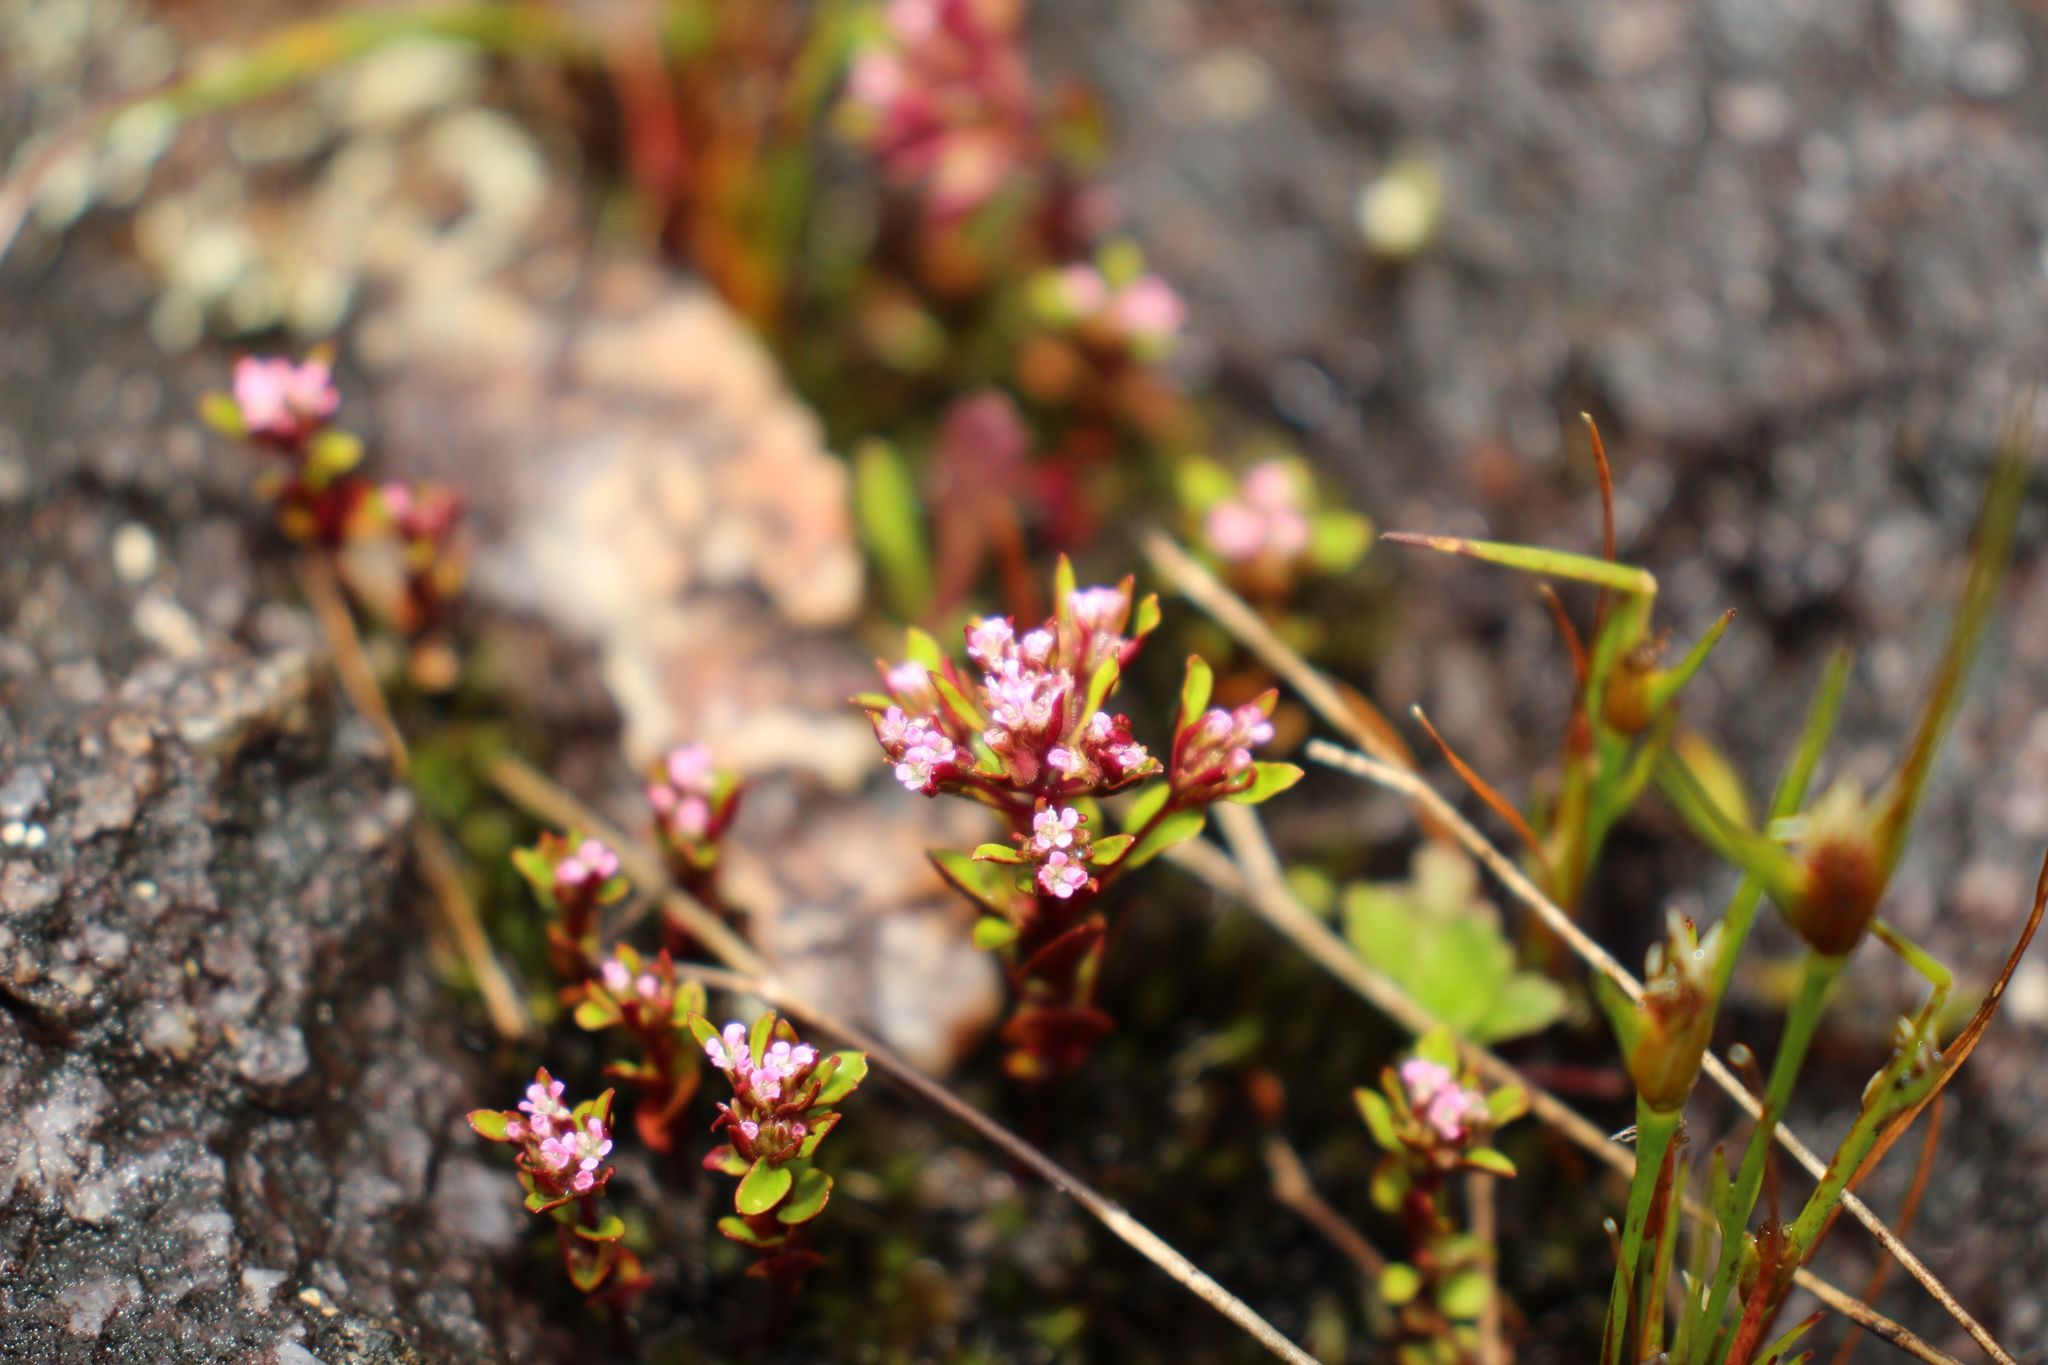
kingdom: Plantae
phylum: Tracheophyta
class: Magnoliopsida
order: Asterales
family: Stylidiaceae
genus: Levenhookia
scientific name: Levenhookia pusilla
